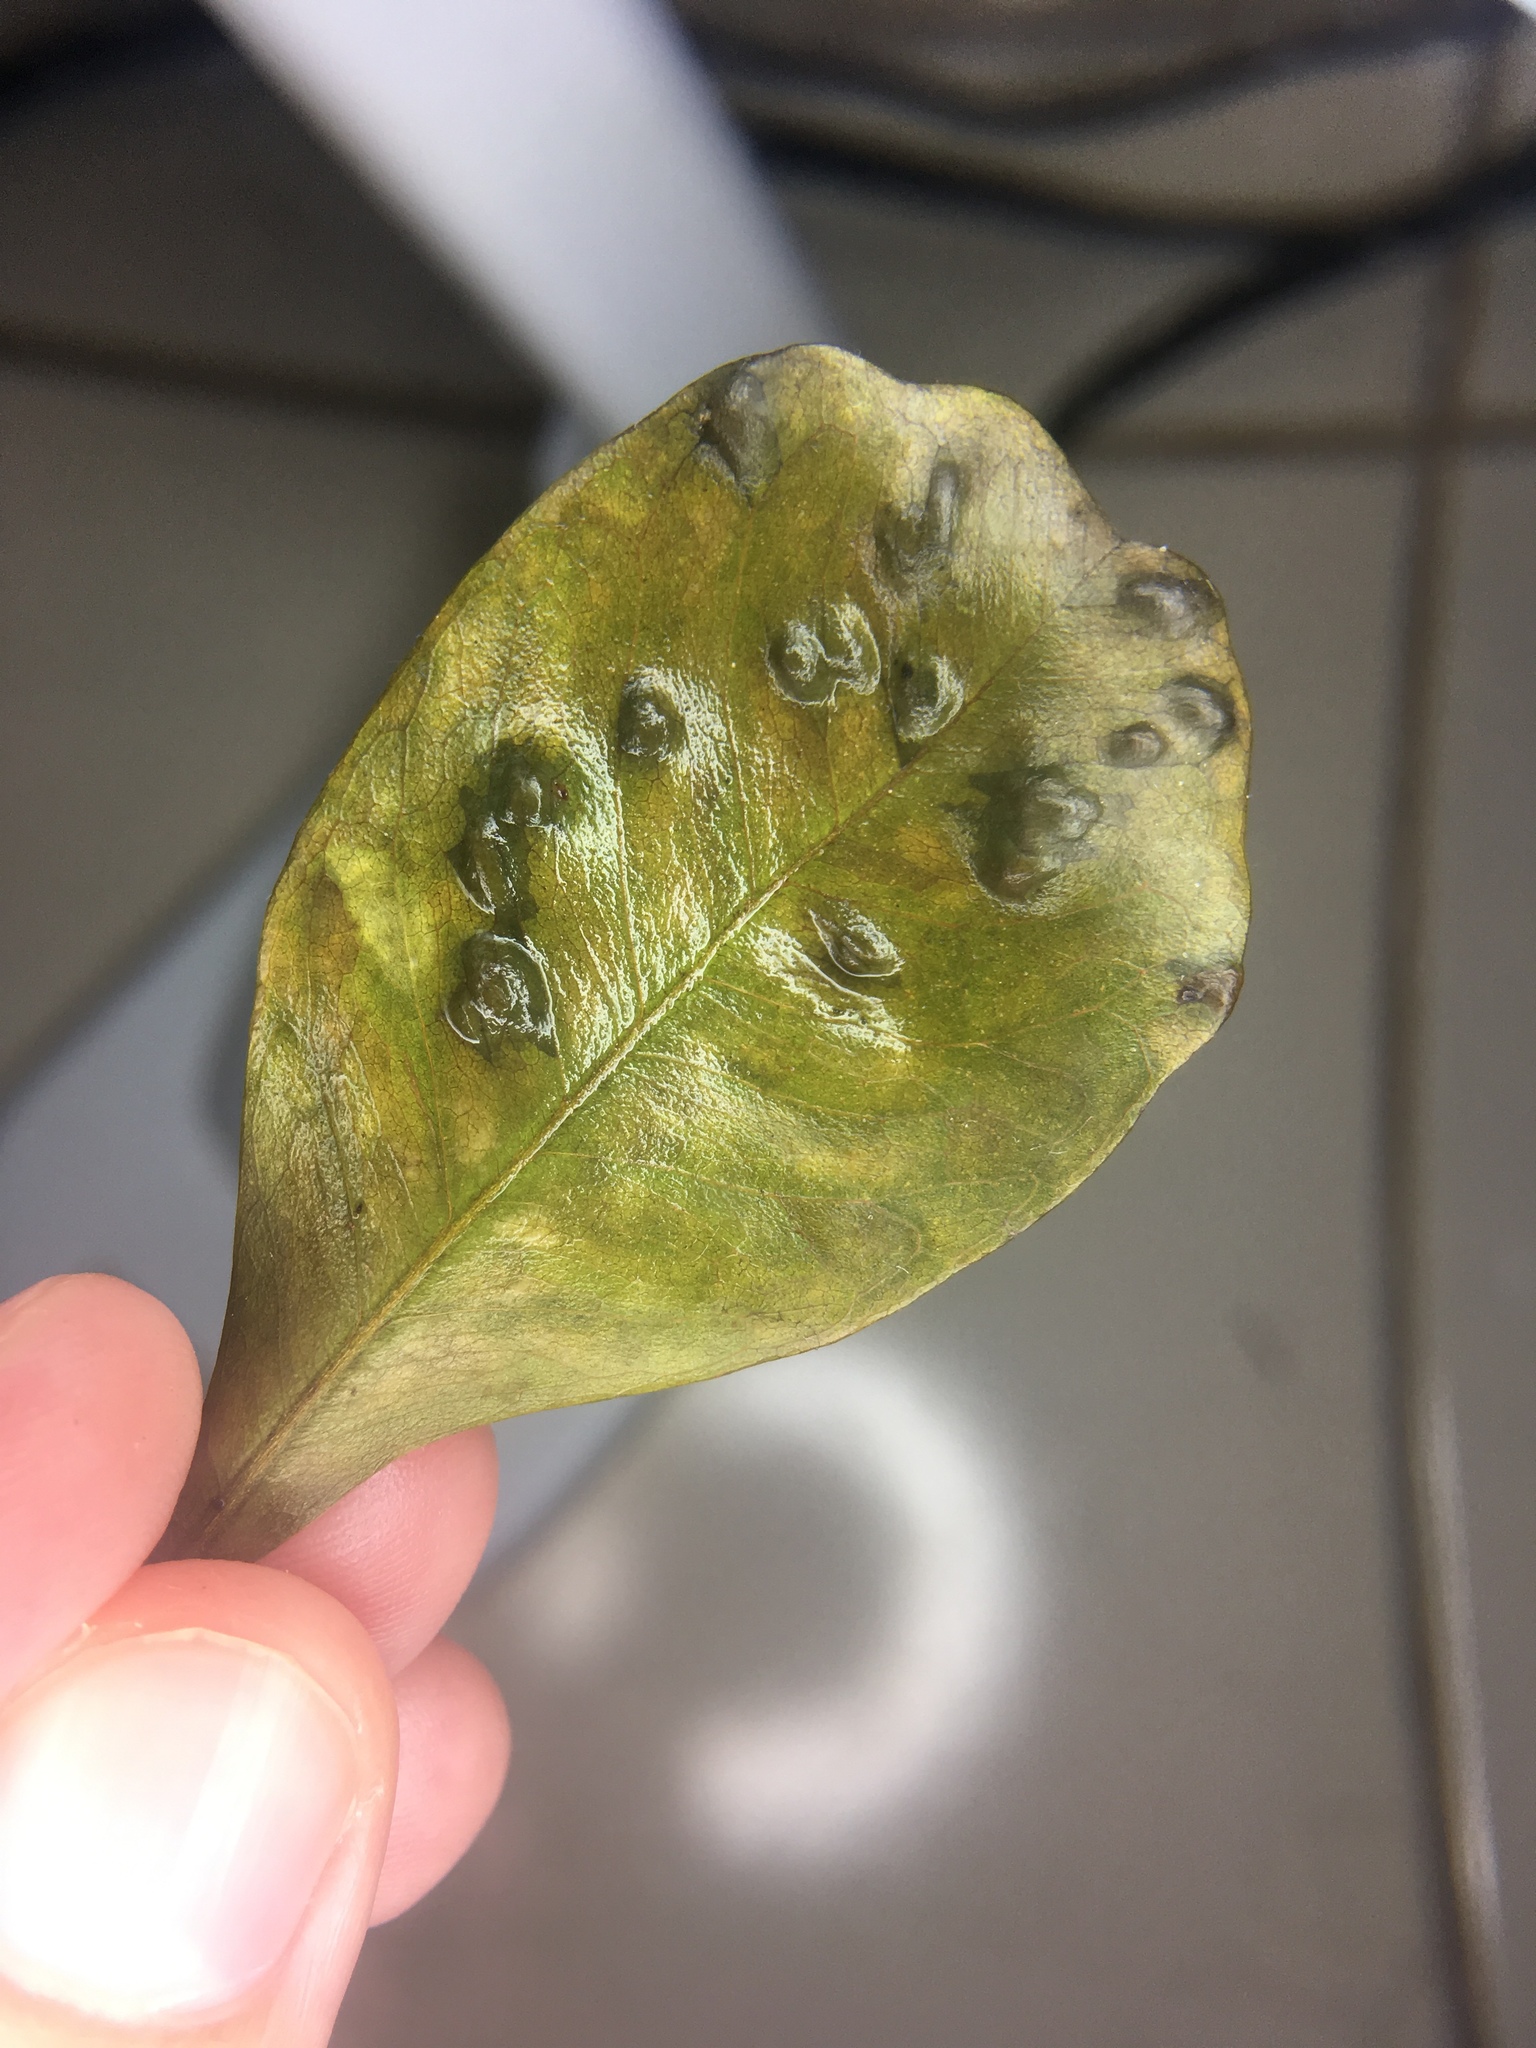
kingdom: Animalia
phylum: Arthropoda
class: Insecta
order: Hymenoptera
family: Tanaostigmatidae
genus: Tanaostigmodes
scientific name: Tanaostigmodes pithecellobiae
